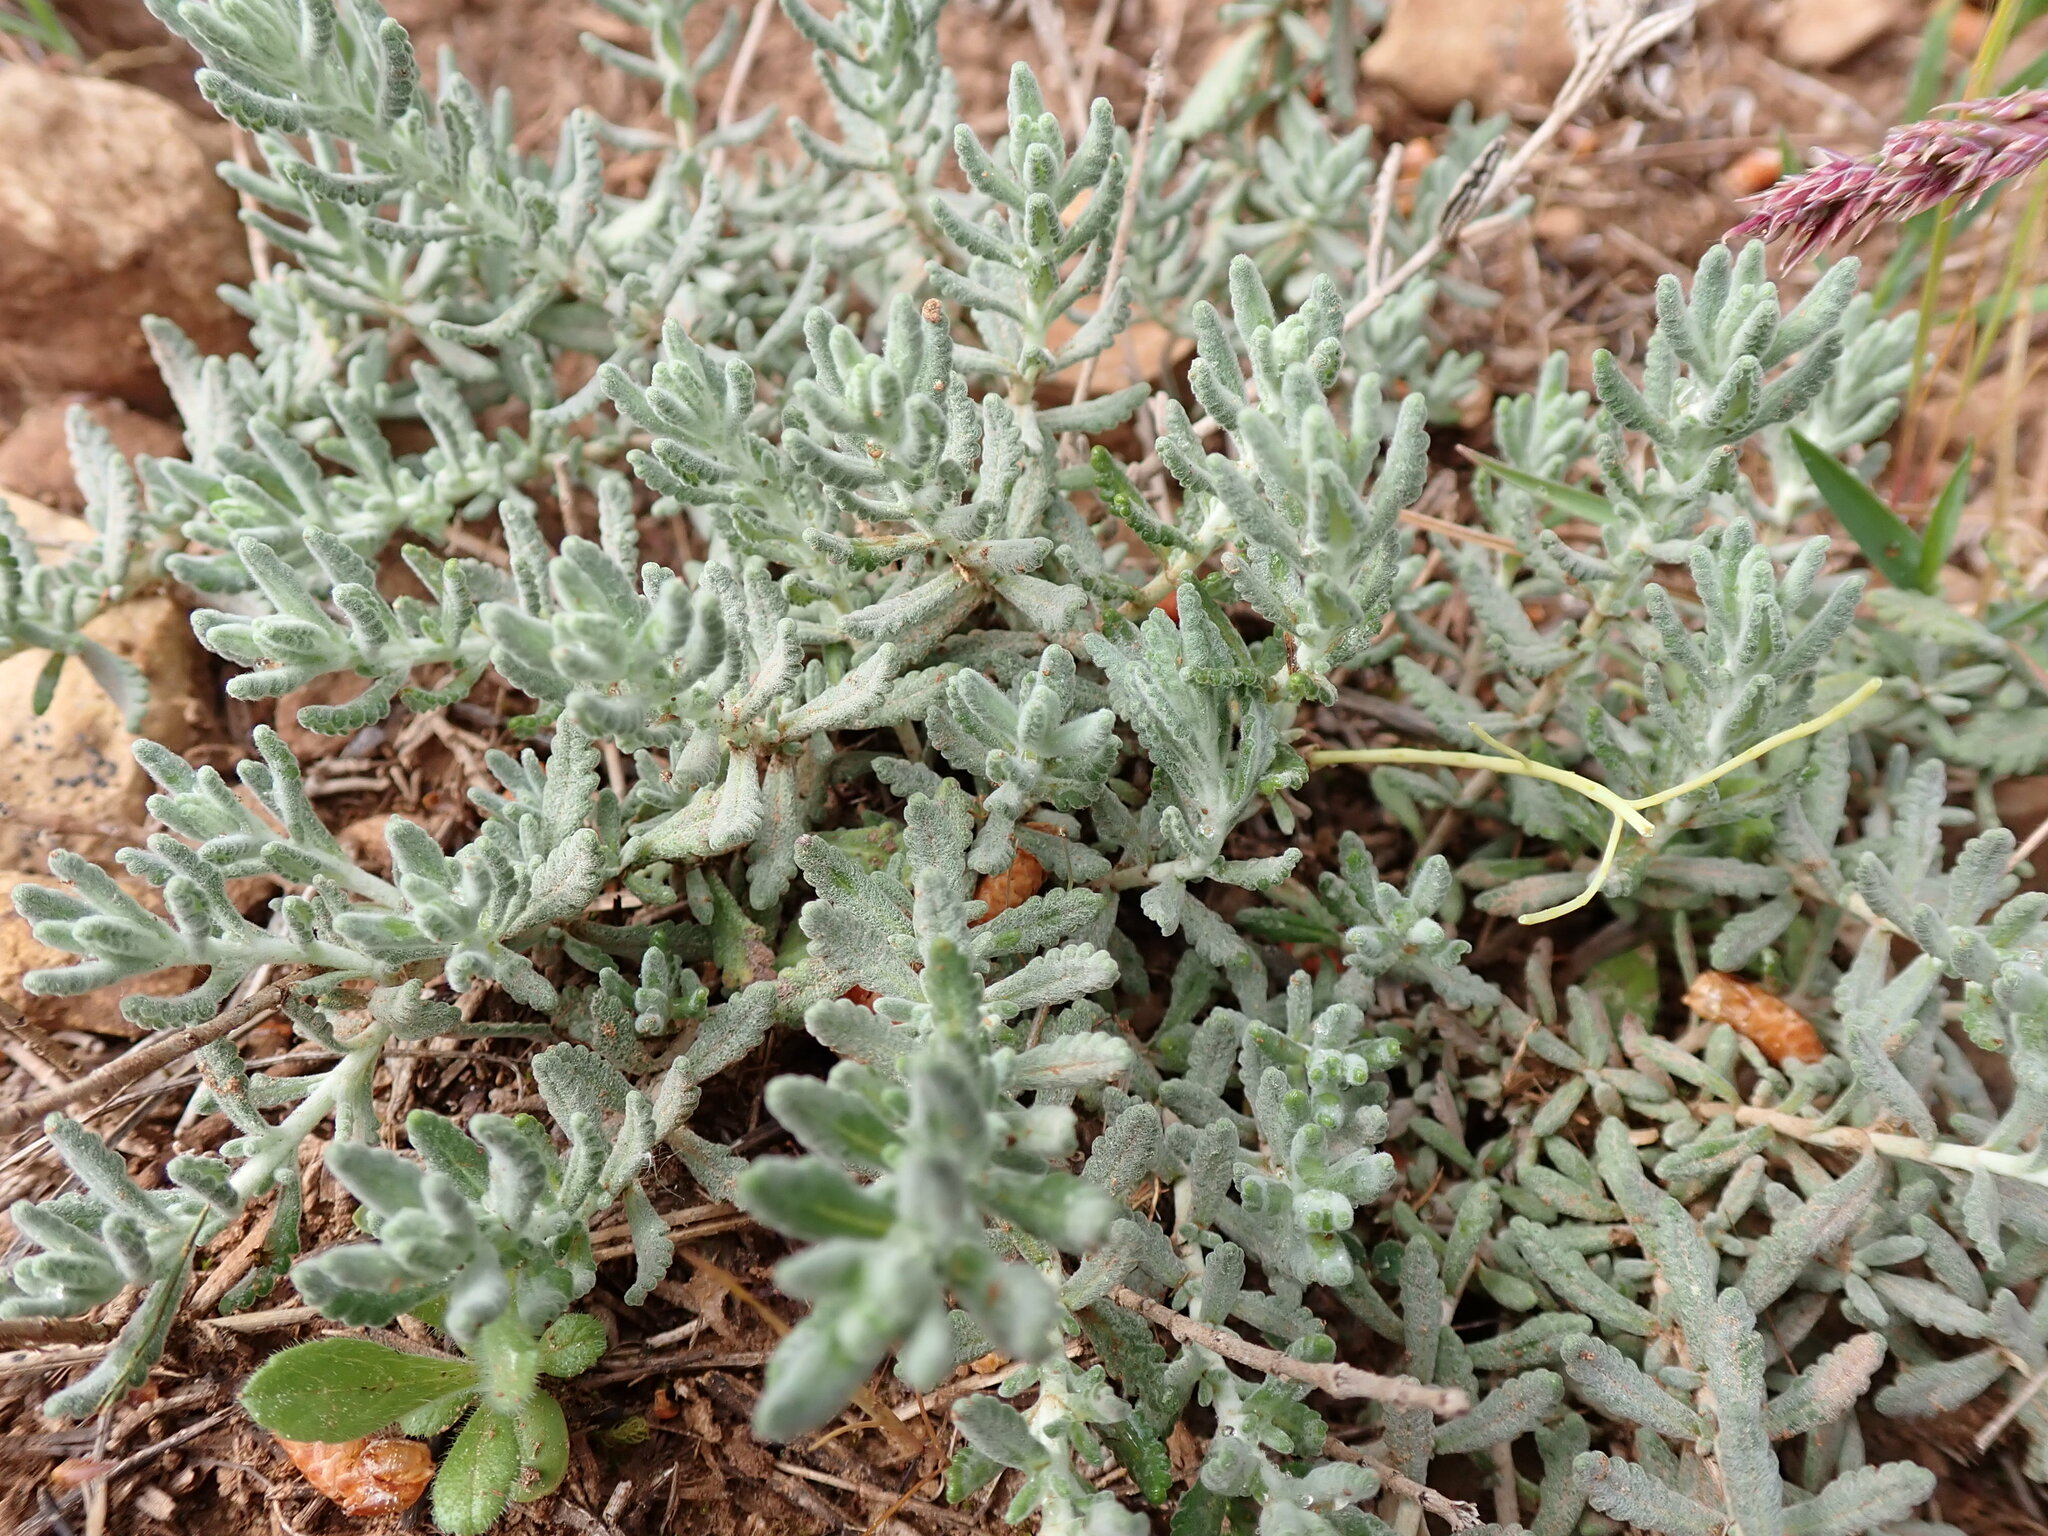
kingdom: Plantae
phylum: Tracheophyta
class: Magnoliopsida
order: Lamiales
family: Lamiaceae
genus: Teucrium
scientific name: Teucrium polium
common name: Poley
